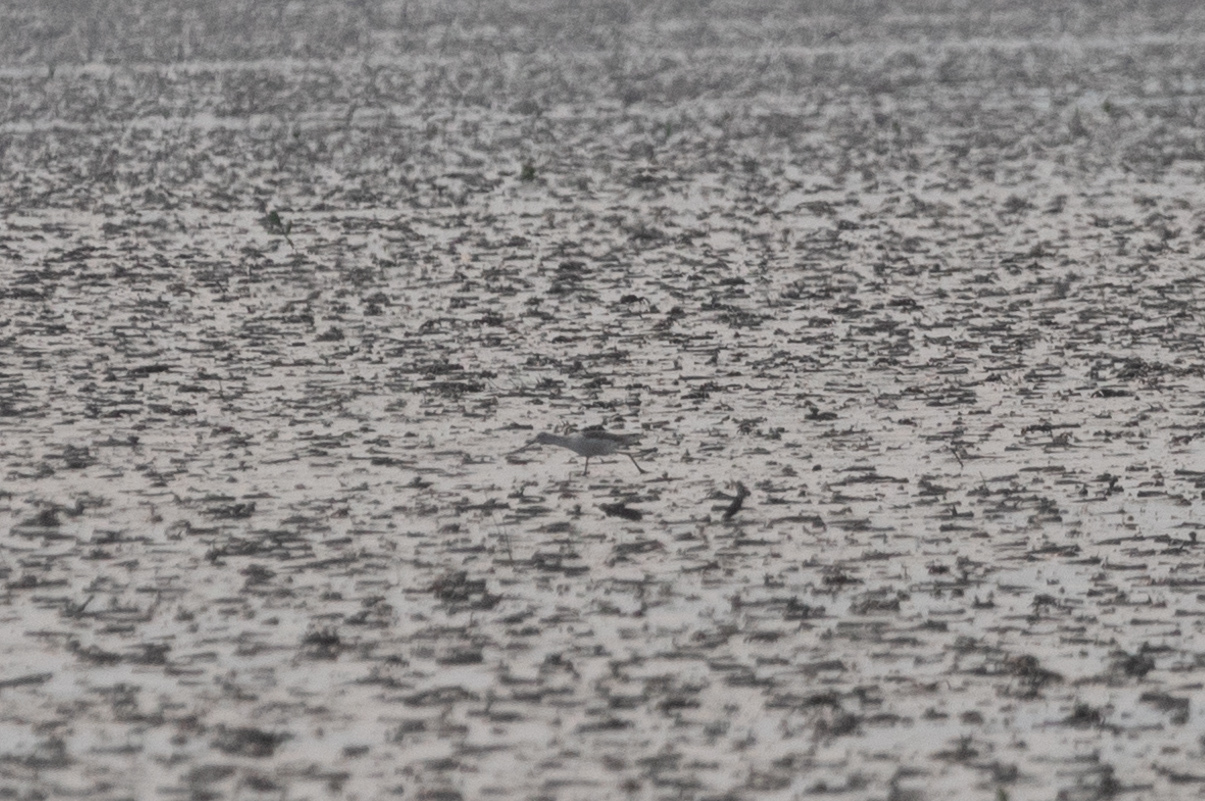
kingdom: Animalia
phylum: Chordata
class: Aves
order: Charadriiformes
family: Scolopacidae
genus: Tringa
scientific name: Tringa nebularia
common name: Common greenshank
